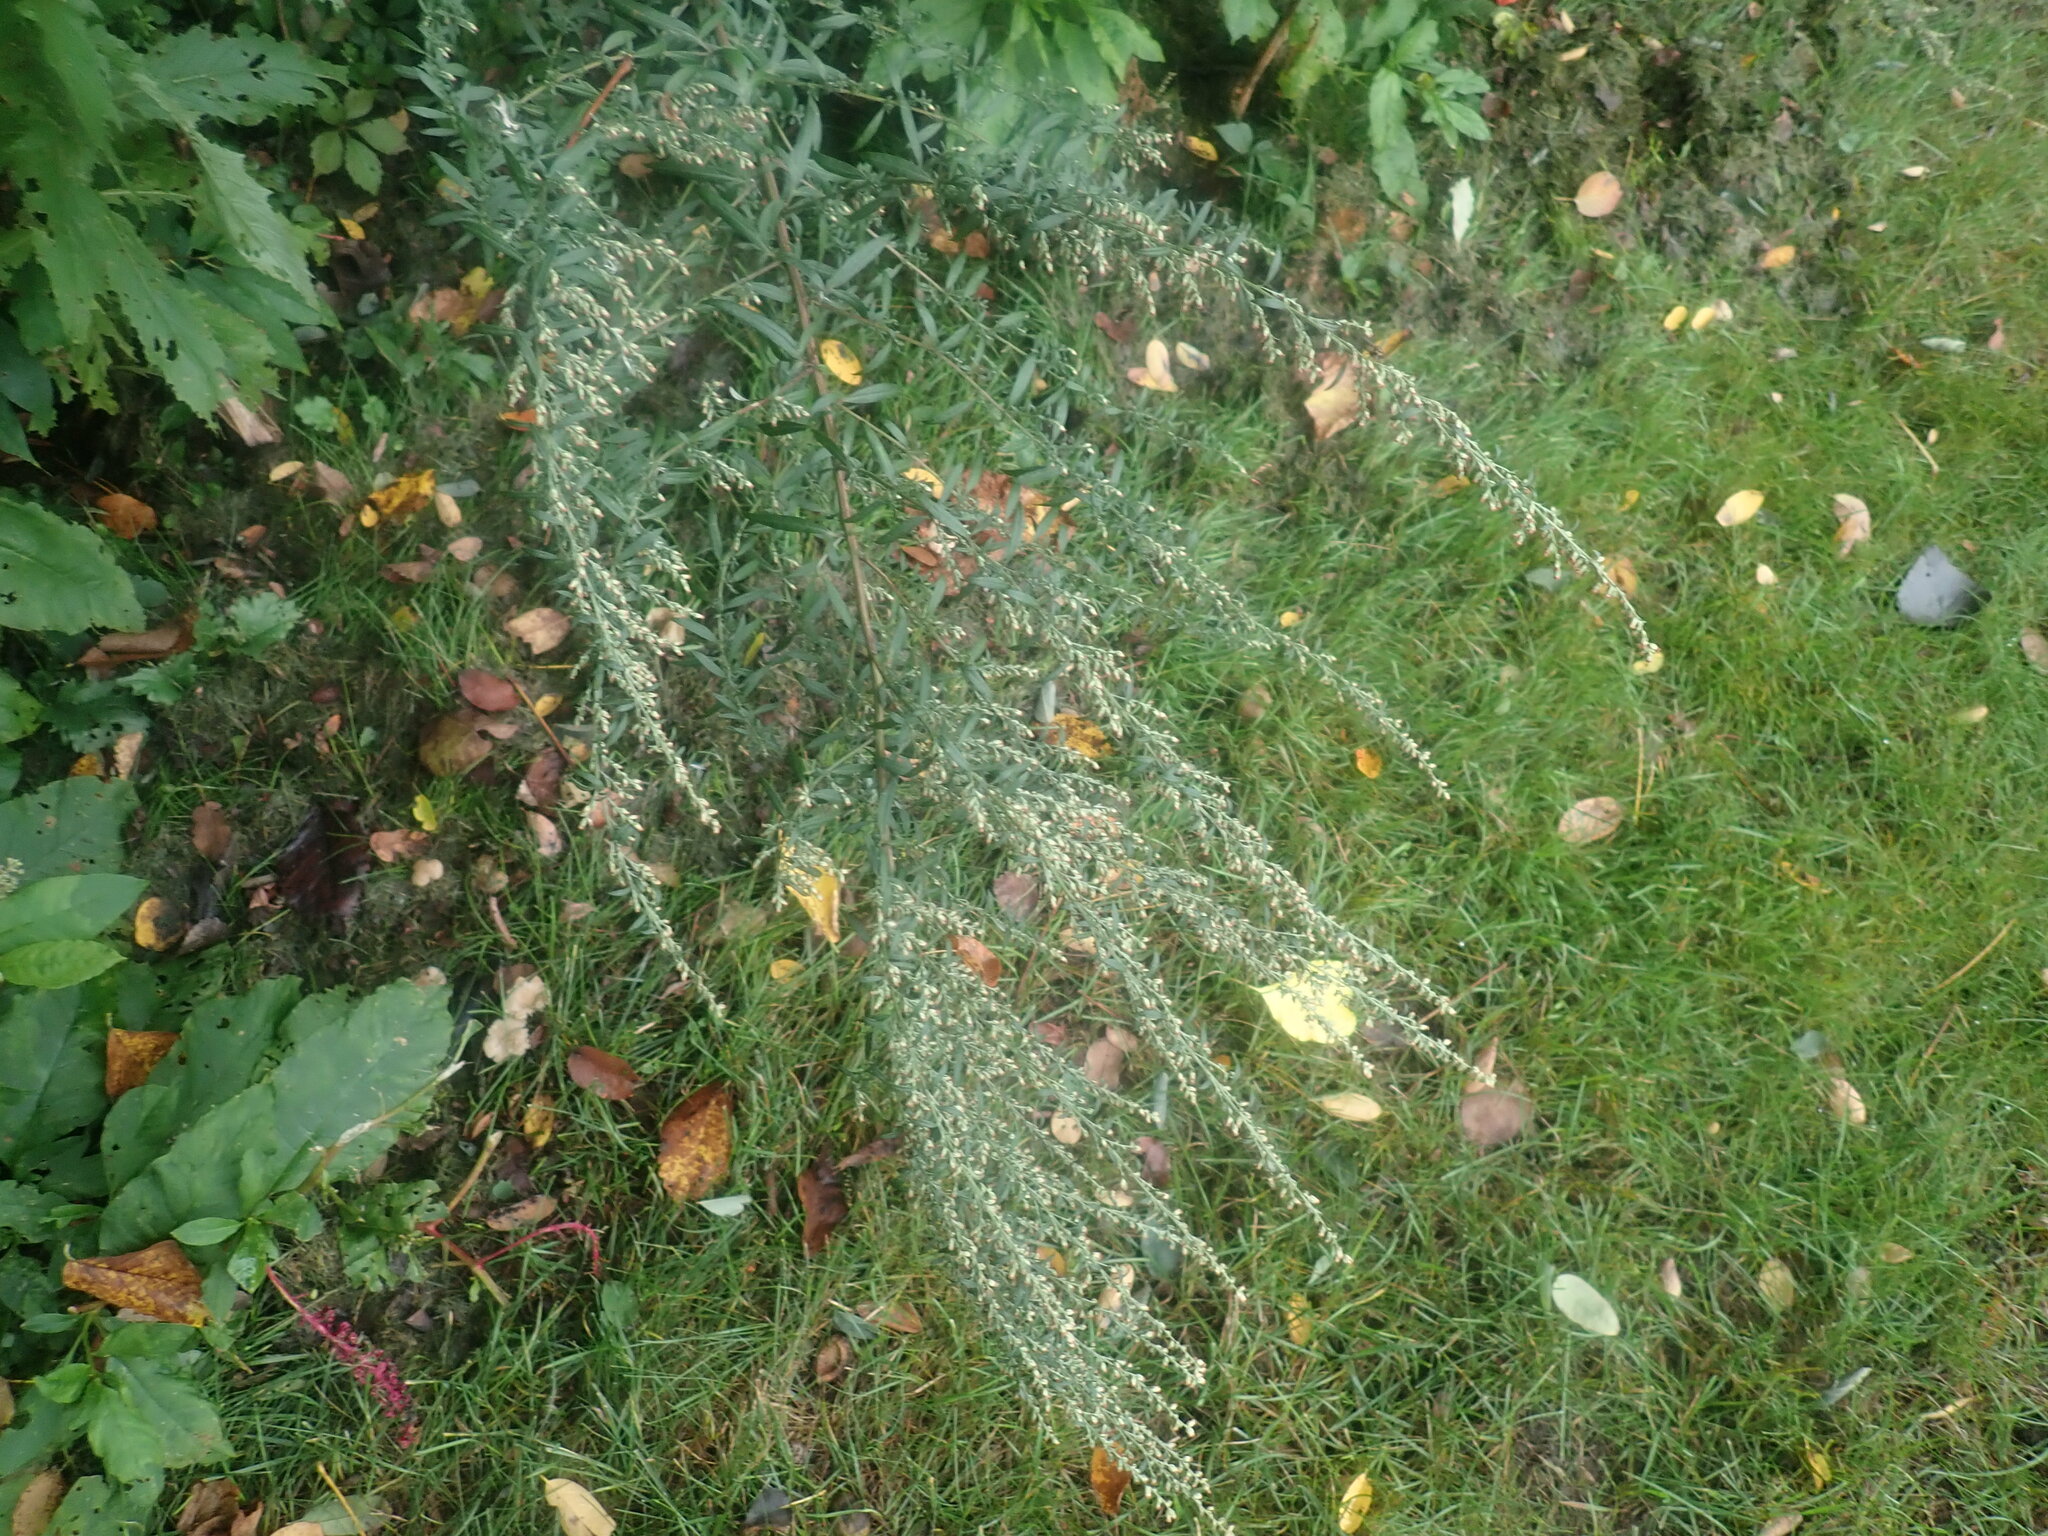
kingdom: Plantae
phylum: Tracheophyta
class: Magnoliopsida
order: Asterales
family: Asteraceae
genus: Artemisia
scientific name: Artemisia vulgaris
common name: Mugwort
